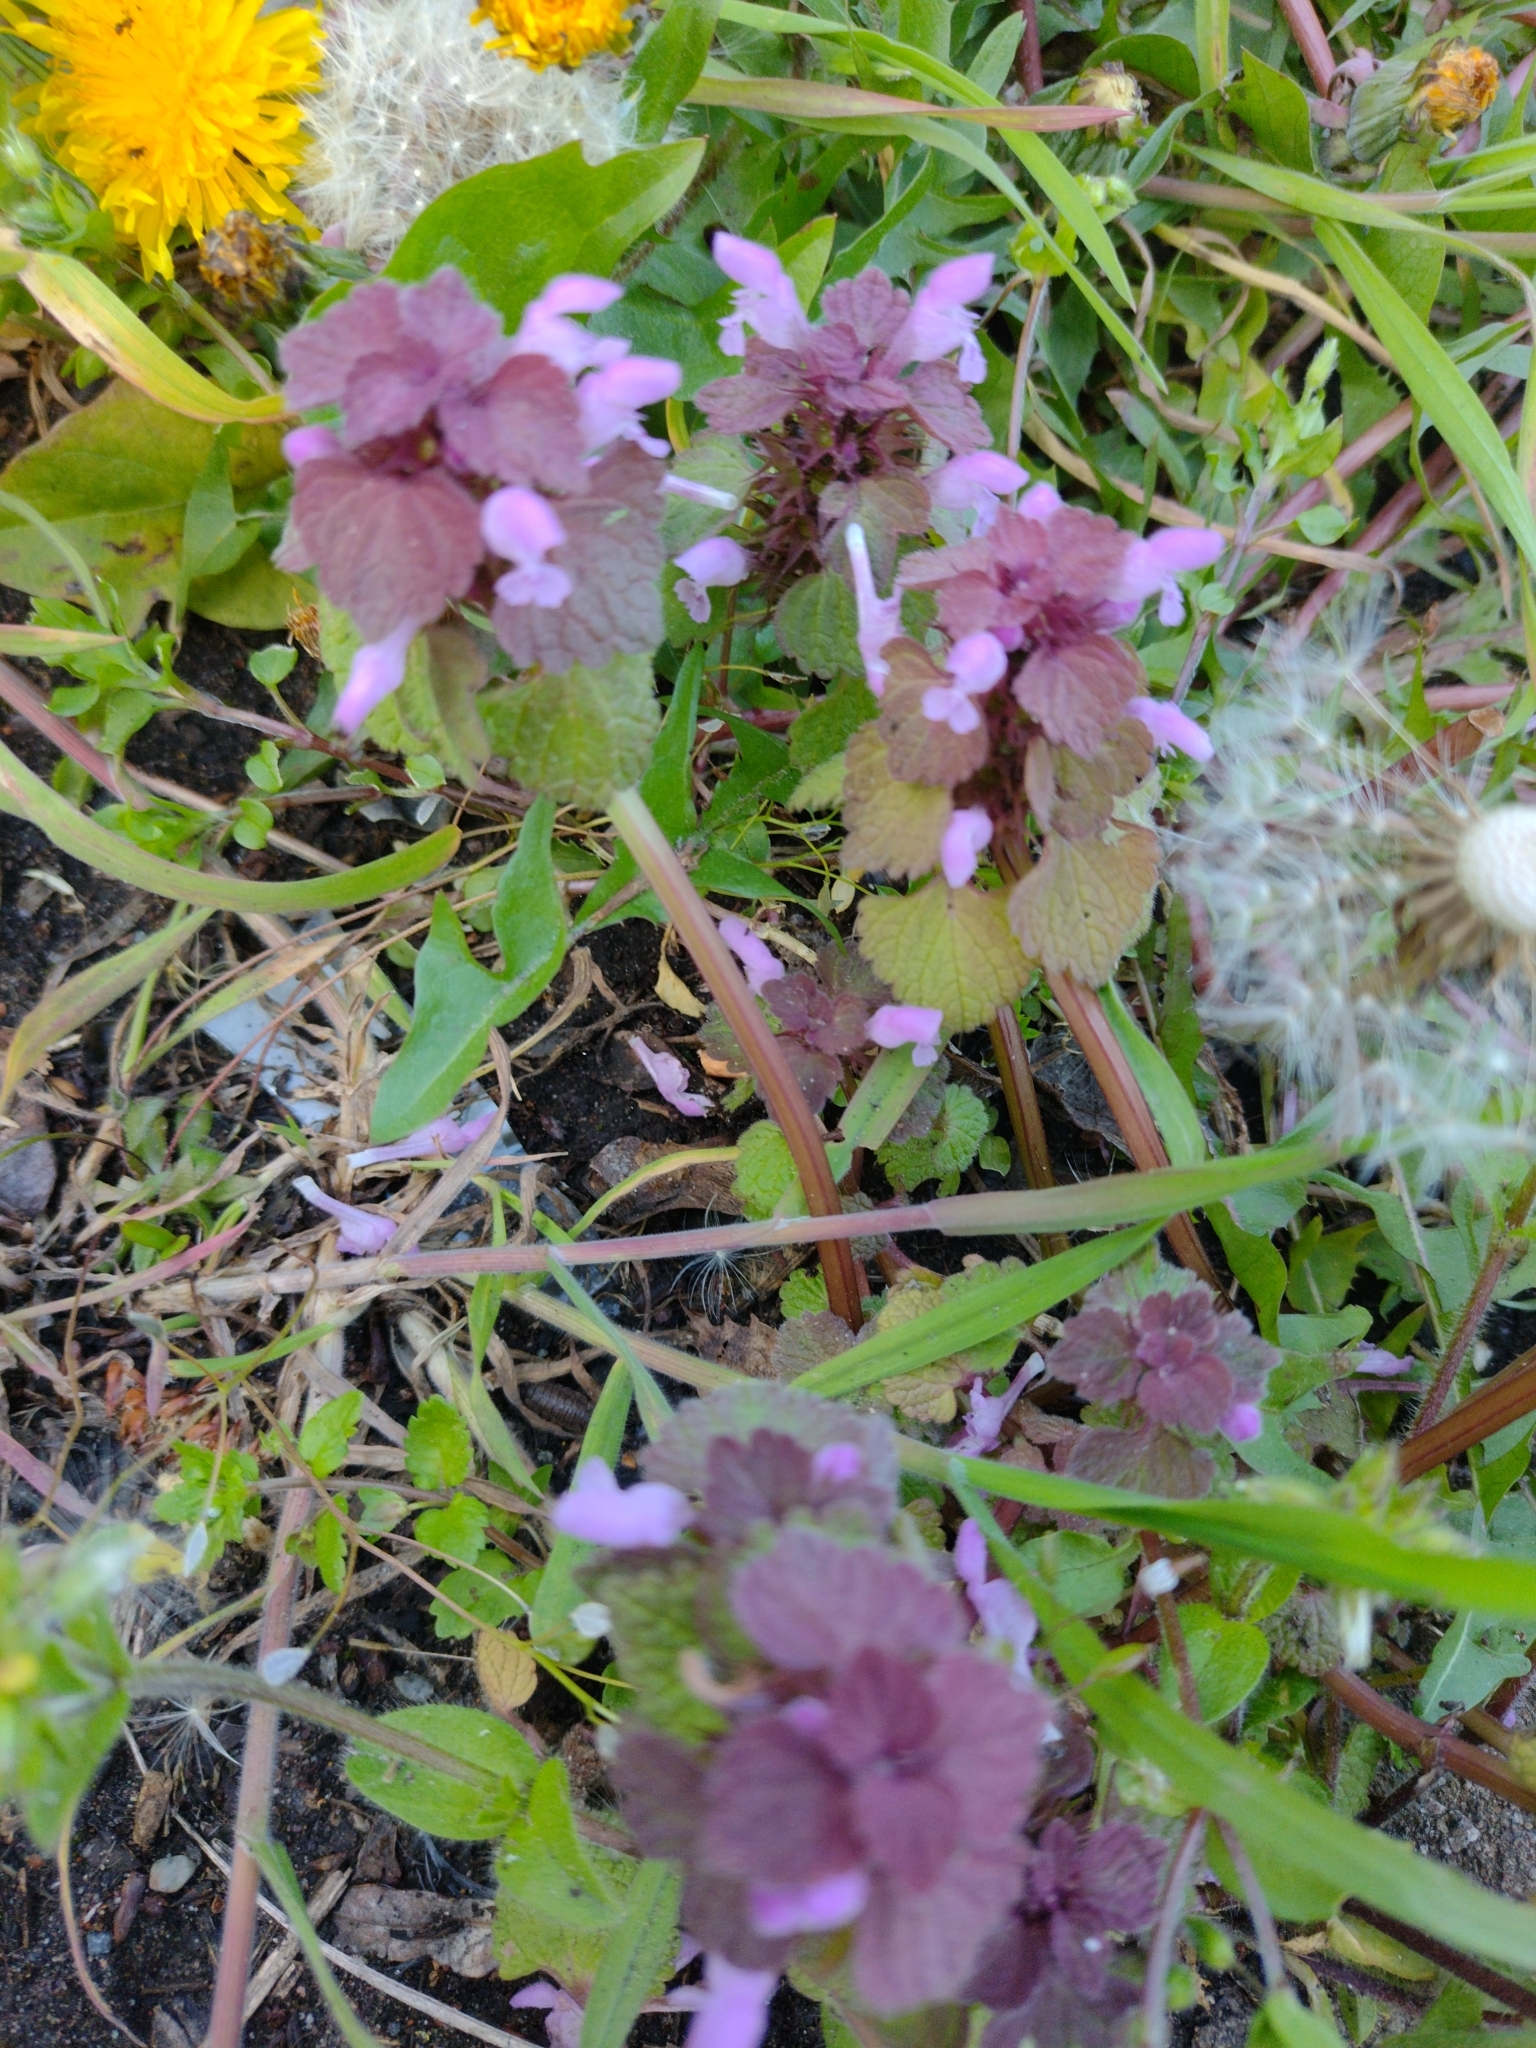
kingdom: Plantae
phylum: Tracheophyta
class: Magnoliopsida
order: Lamiales
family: Lamiaceae
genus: Lamium
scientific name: Lamium purpureum
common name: Red dead-nettle
